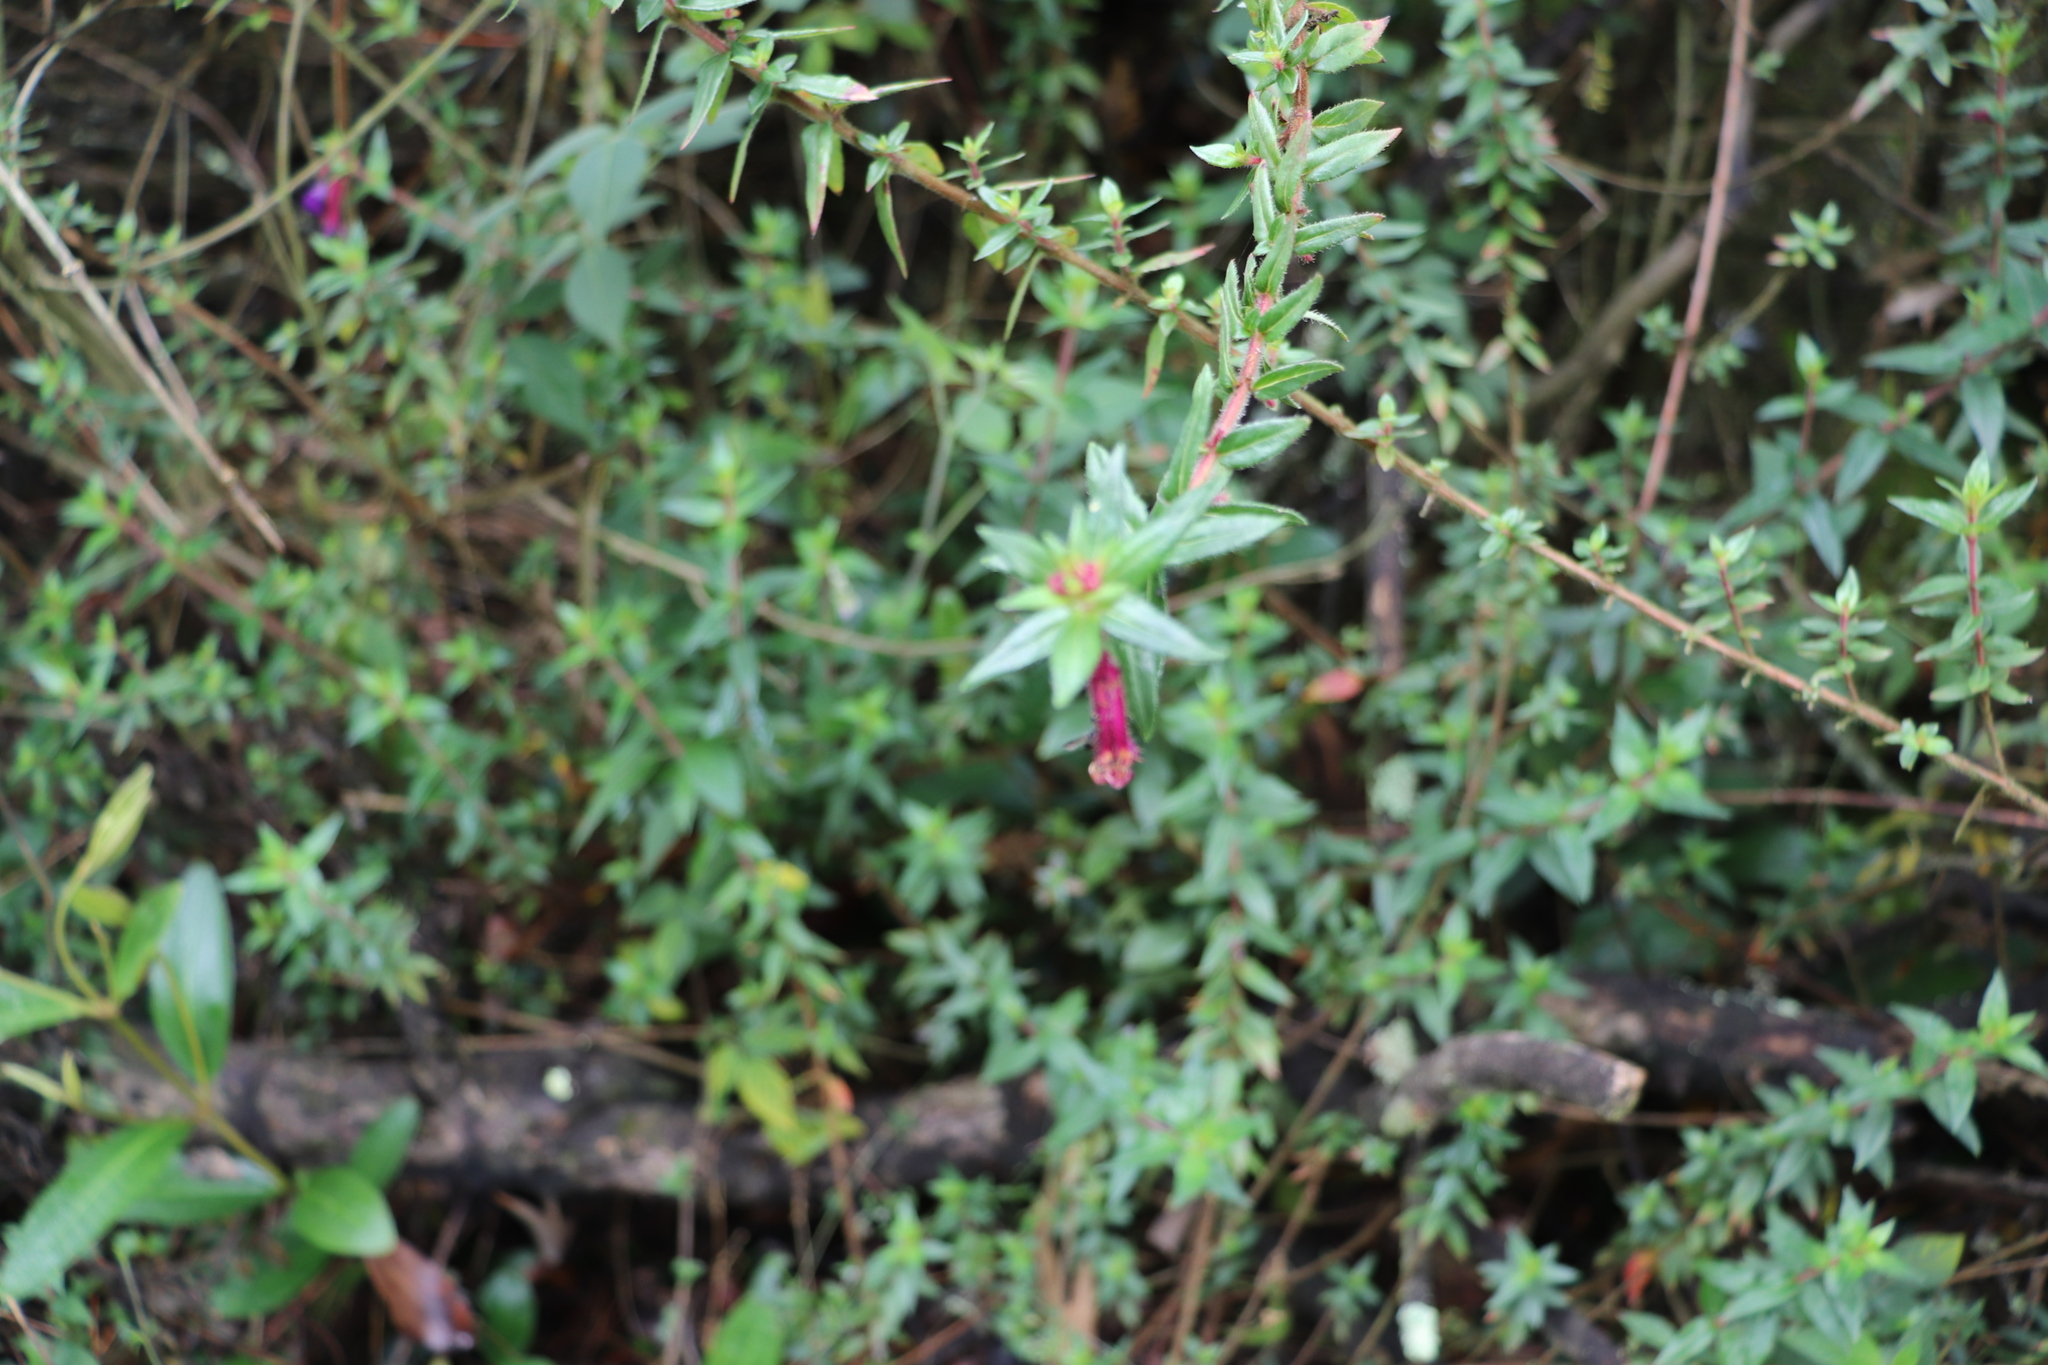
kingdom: Plantae
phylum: Tracheophyta
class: Magnoliopsida
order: Myrtales
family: Lythraceae
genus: Cuphea
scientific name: Cuphea dipetala
